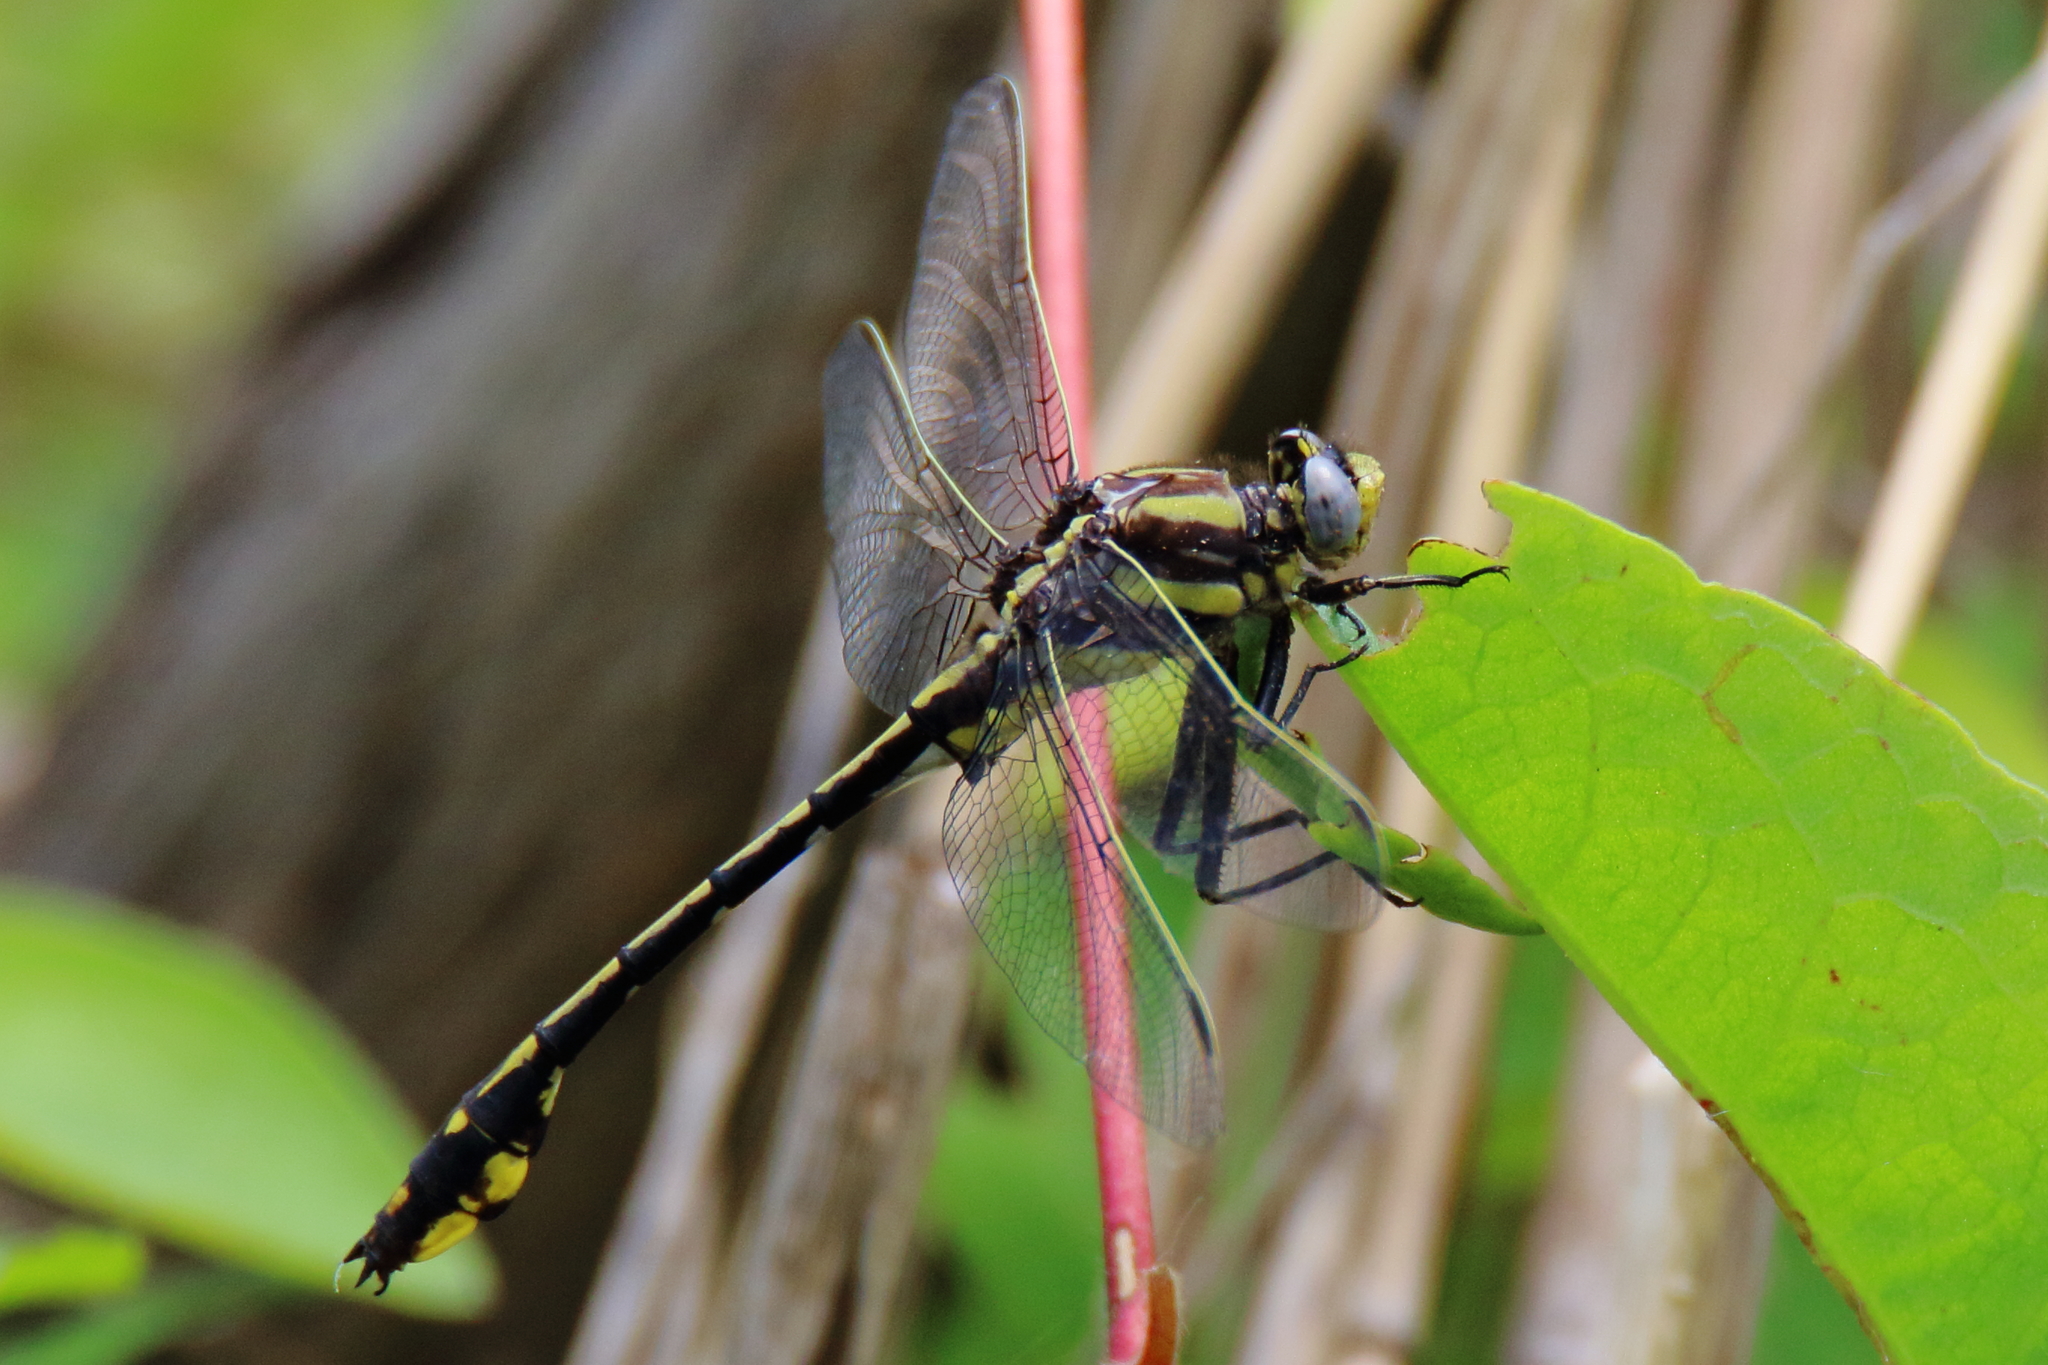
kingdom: Animalia
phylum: Arthropoda
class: Insecta
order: Odonata
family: Gomphidae
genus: Gomphurus
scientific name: Gomphurus externus
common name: Plains clubtail
